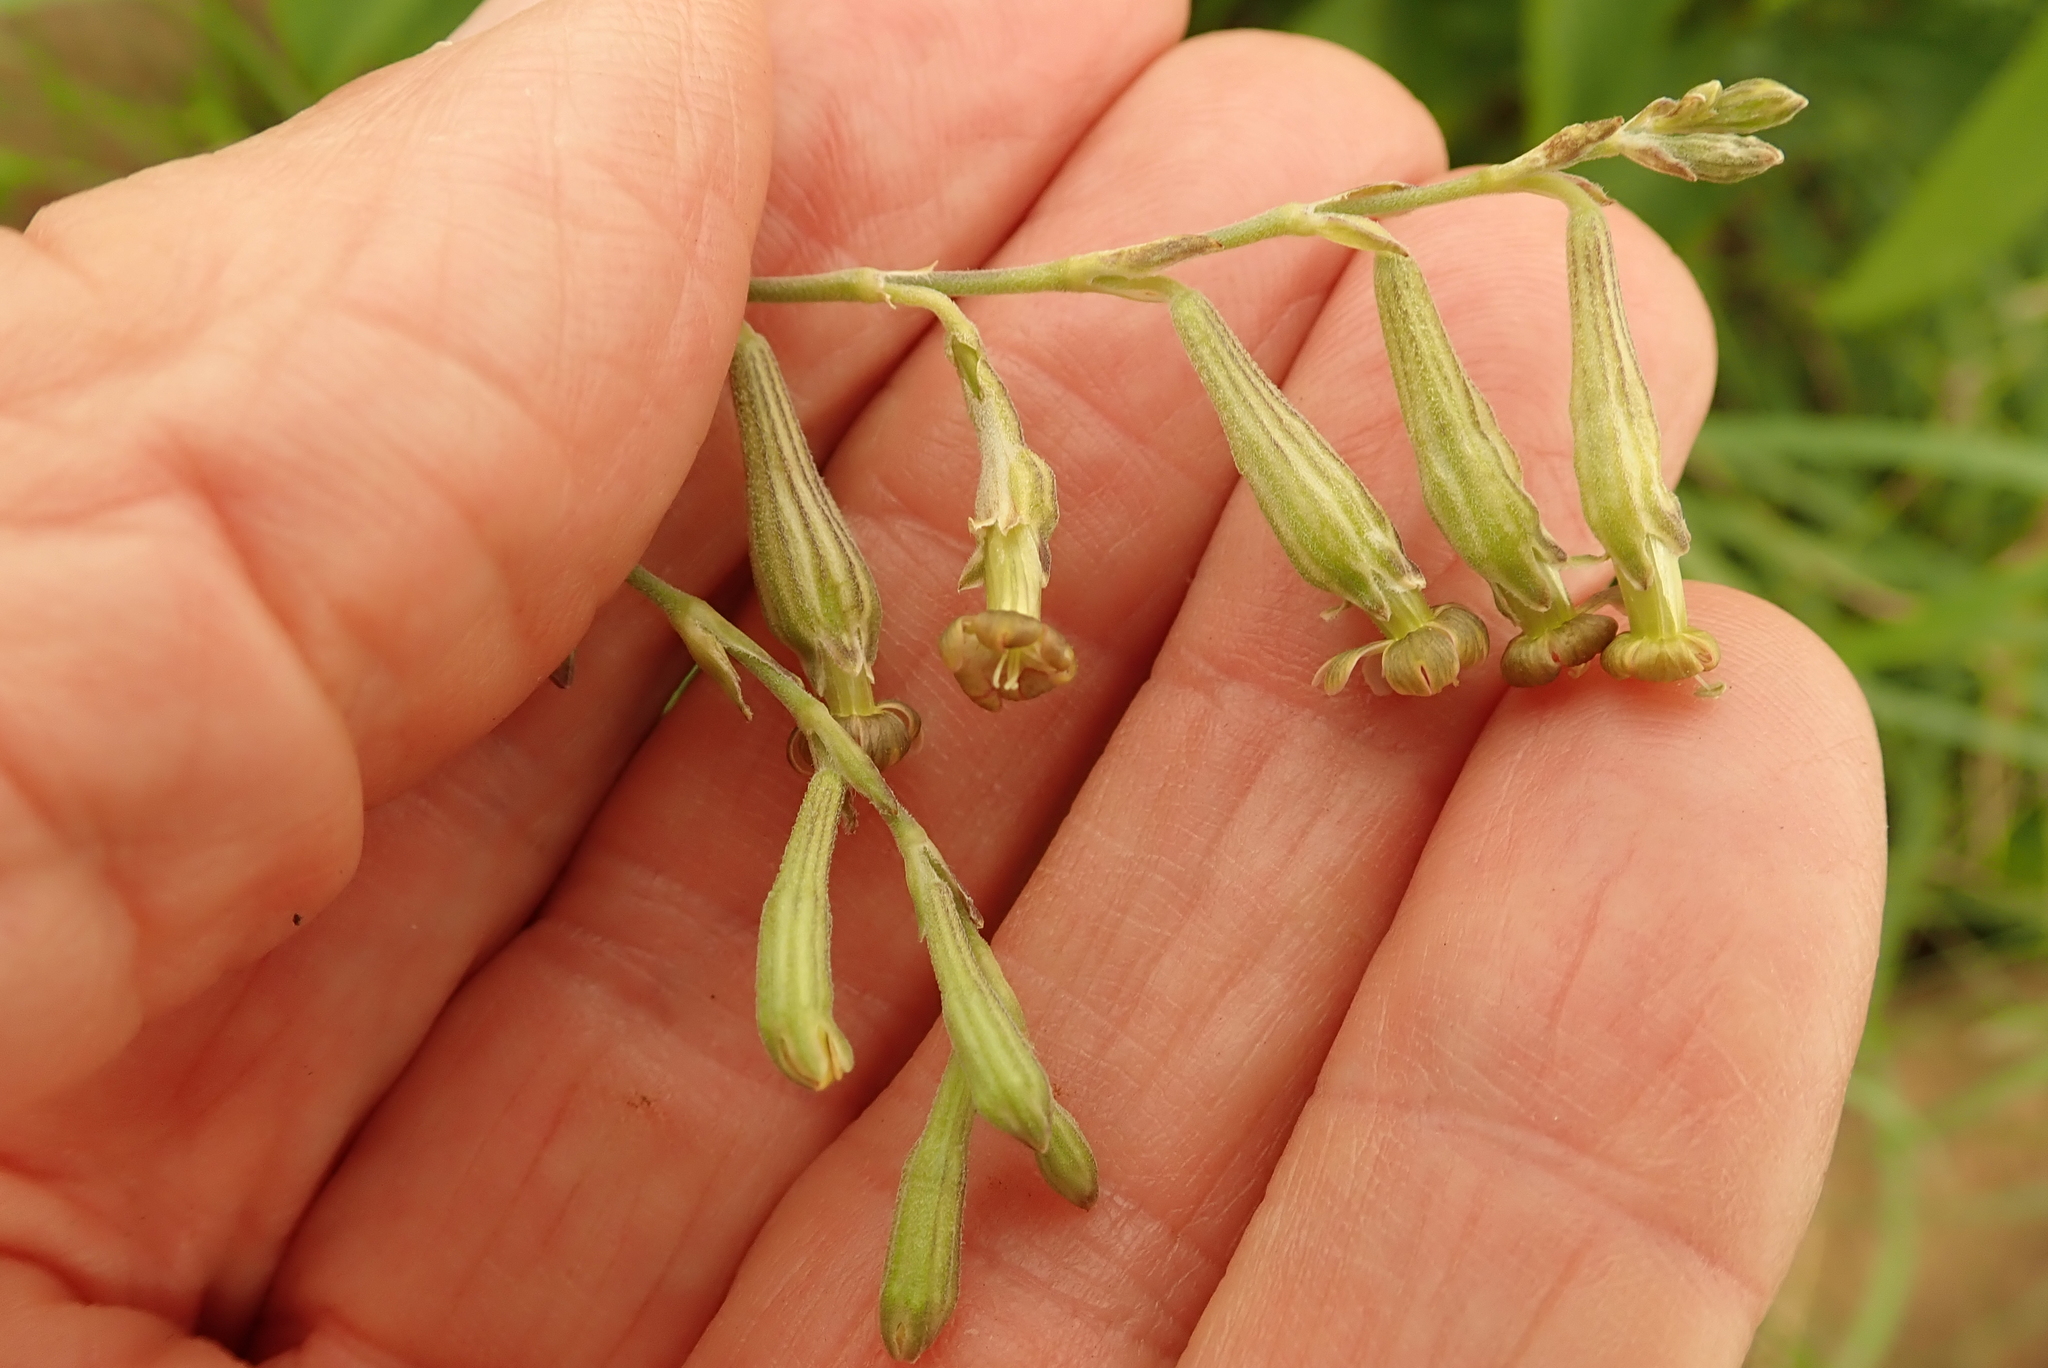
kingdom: Plantae
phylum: Tracheophyta
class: Magnoliopsida
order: Caryophyllales
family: Caryophyllaceae
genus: Silene
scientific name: Silene burchellii
